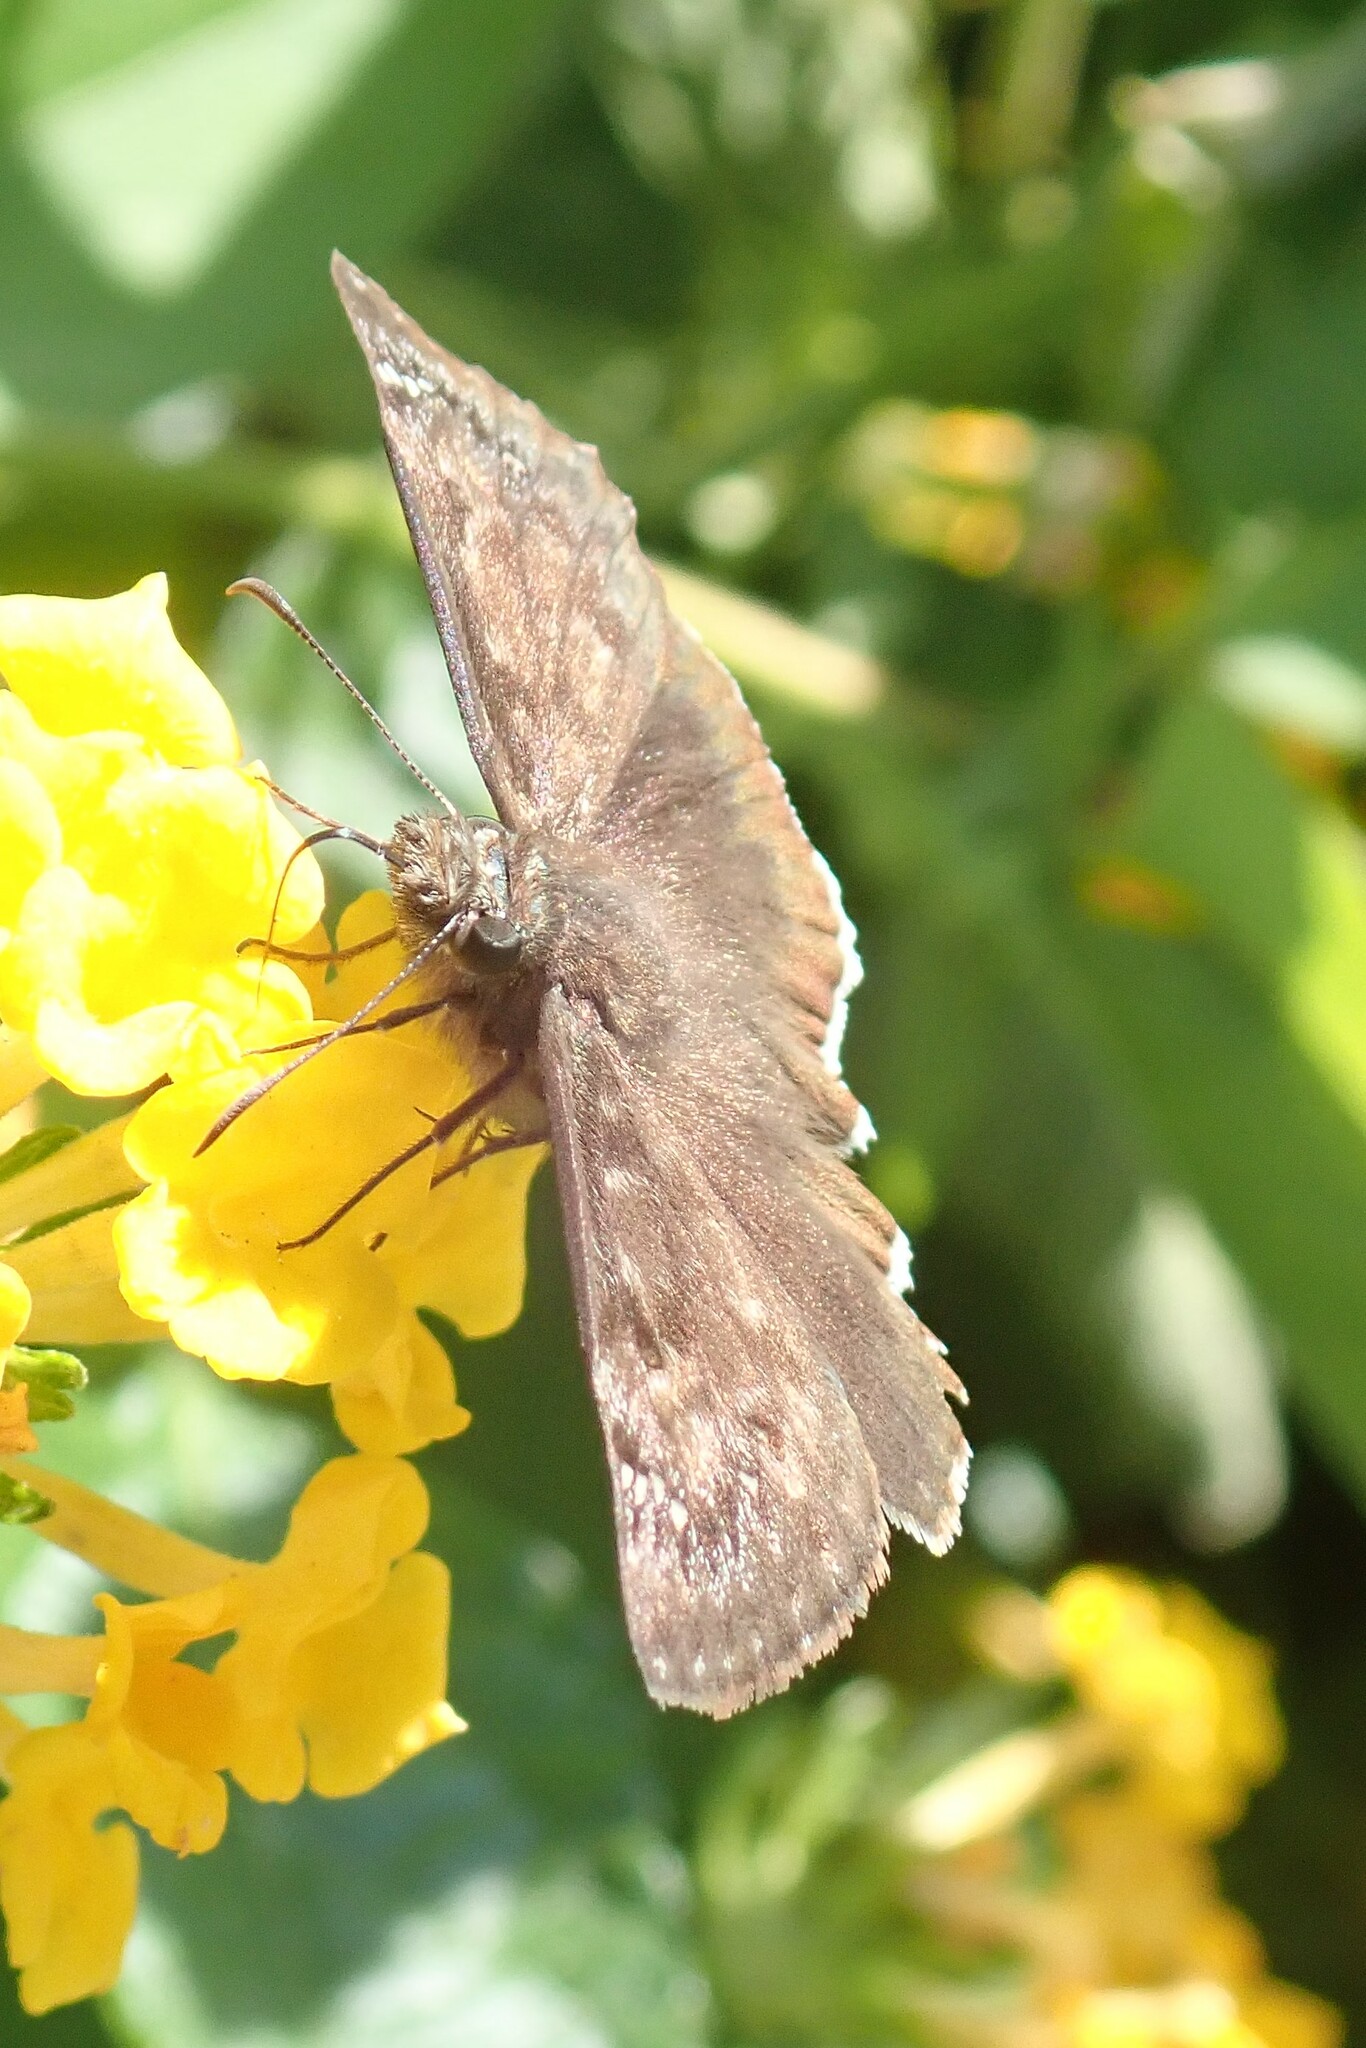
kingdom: Animalia
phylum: Arthropoda
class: Insecta
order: Lepidoptera
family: Hesperiidae
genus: Erynnis
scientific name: Erynnis tristis
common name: Mournful duskywing
